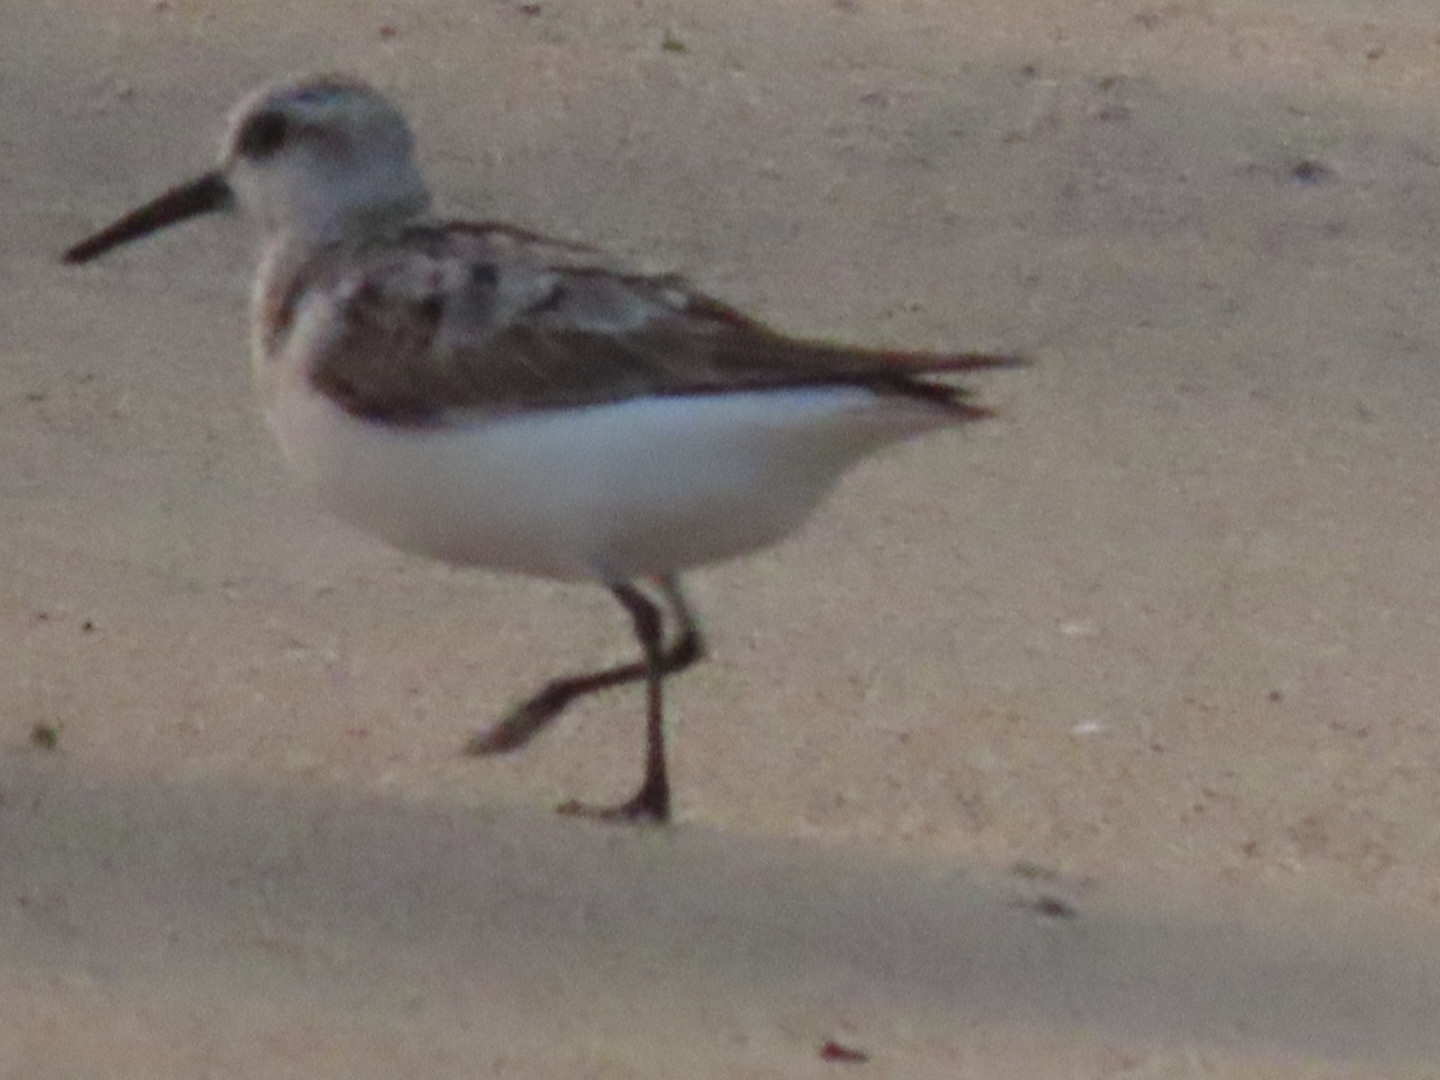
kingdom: Animalia
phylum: Chordata
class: Aves
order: Charadriiformes
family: Scolopacidae
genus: Calidris
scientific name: Calidris alba
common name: Sanderling
